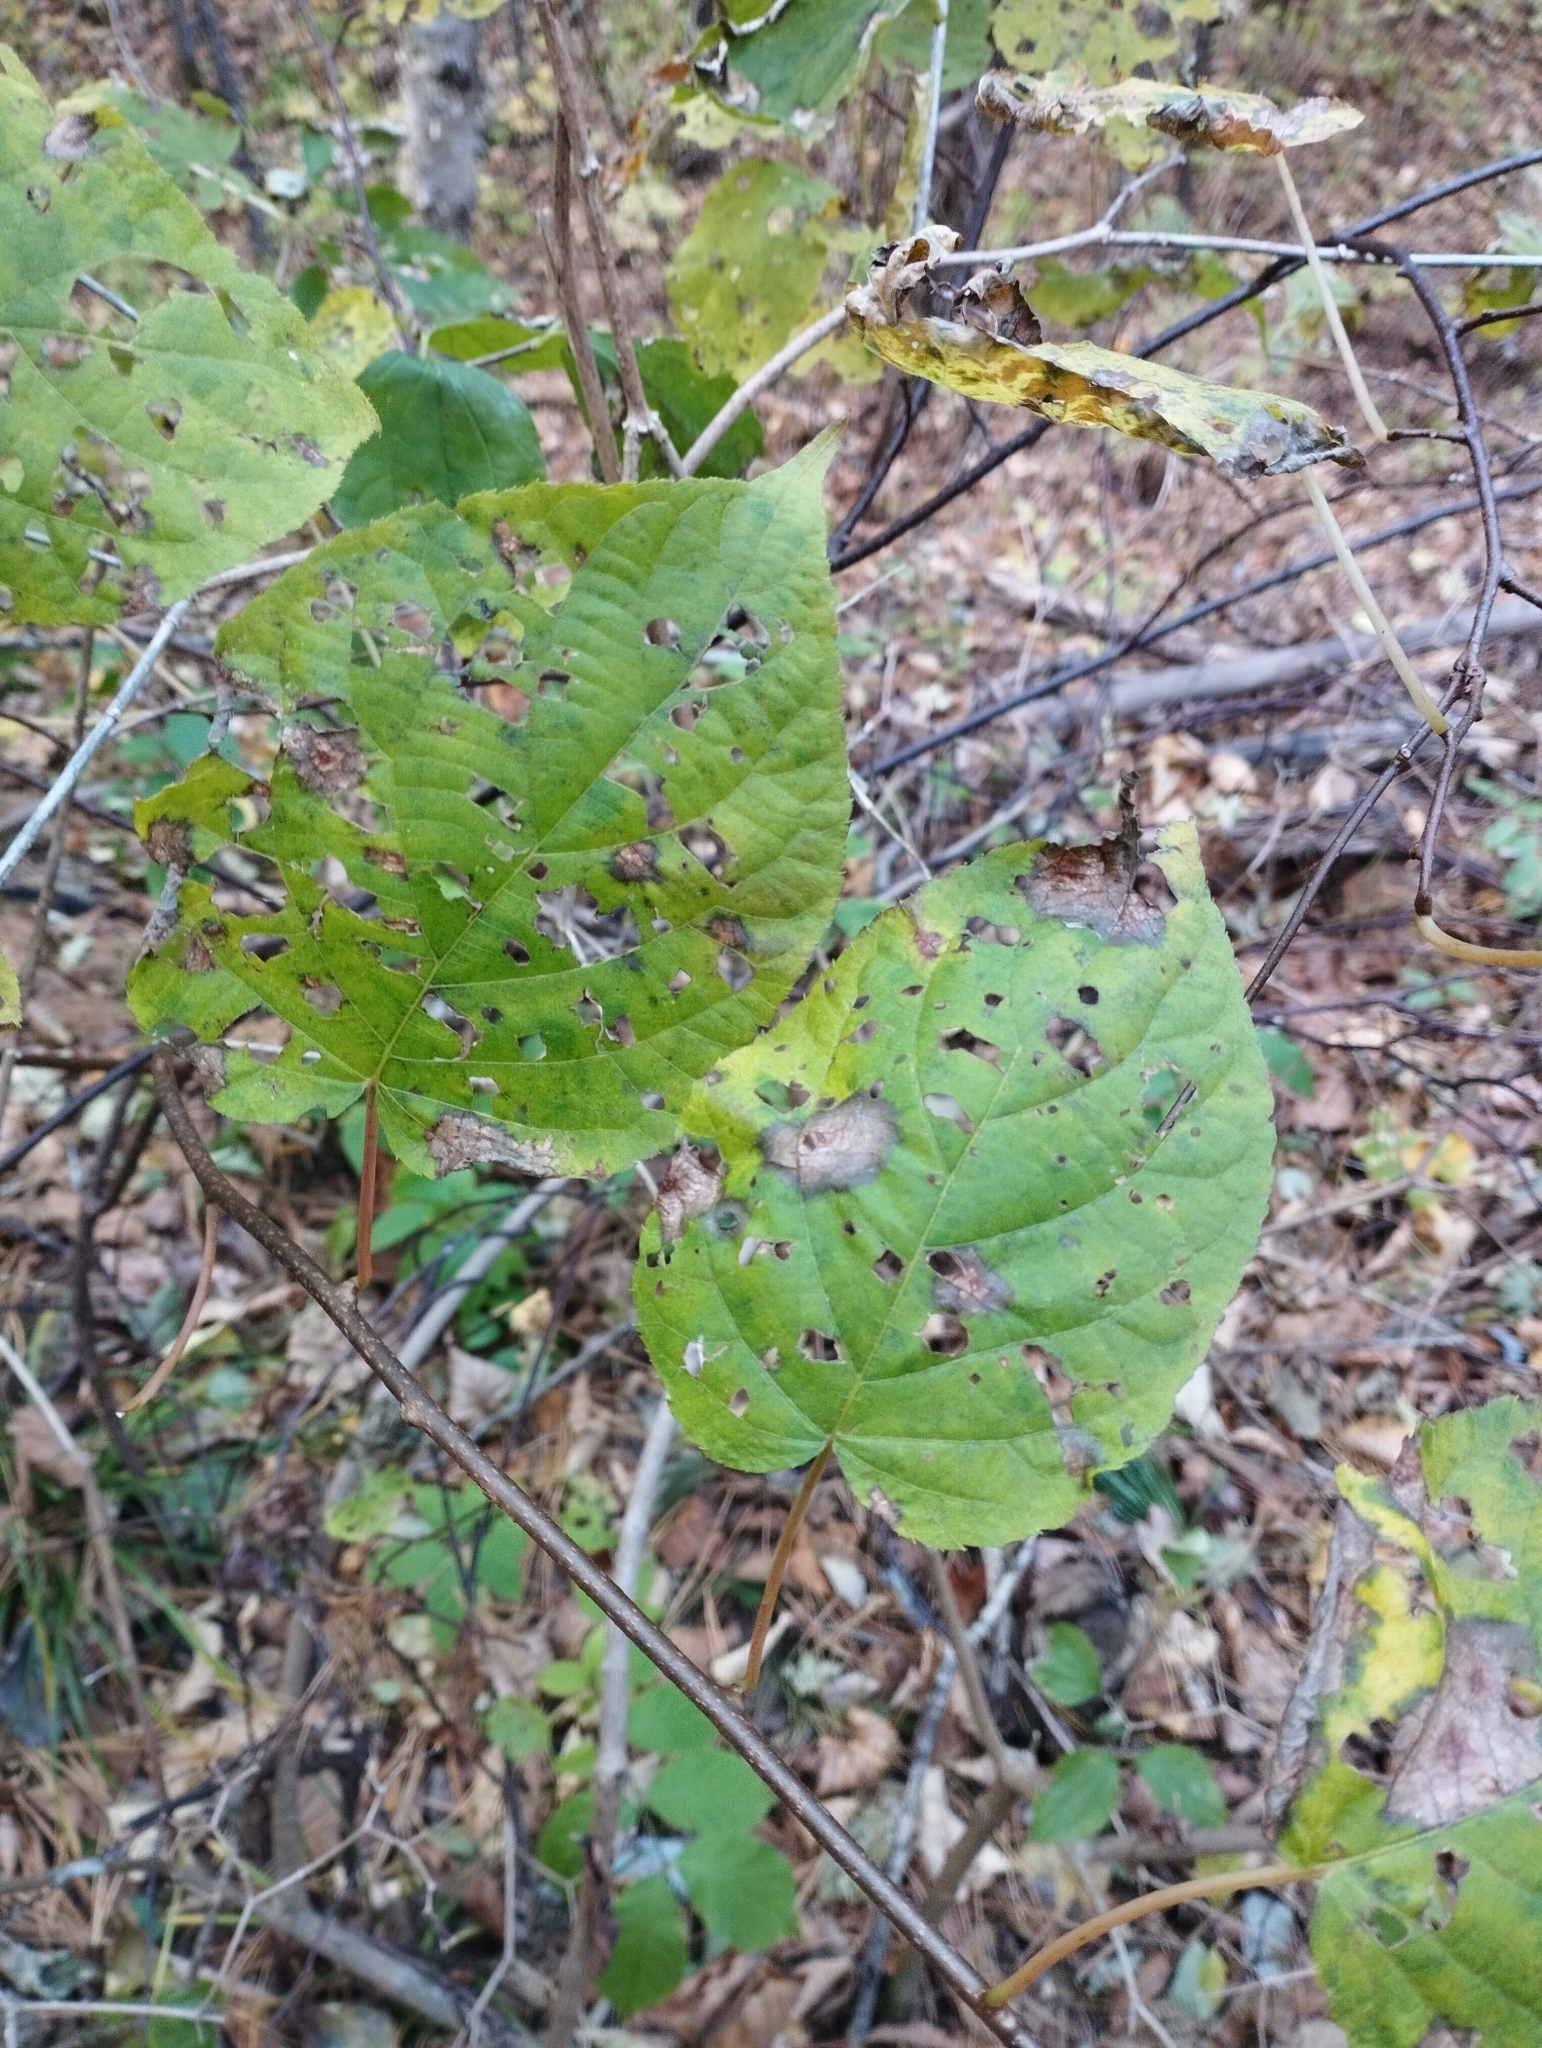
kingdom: Plantae
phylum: Tracheophyta
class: Magnoliopsida
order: Ericales
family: Actinidiaceae
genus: Actinidia
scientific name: Actinidia kolomikta
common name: Arctic beauty kiwi
